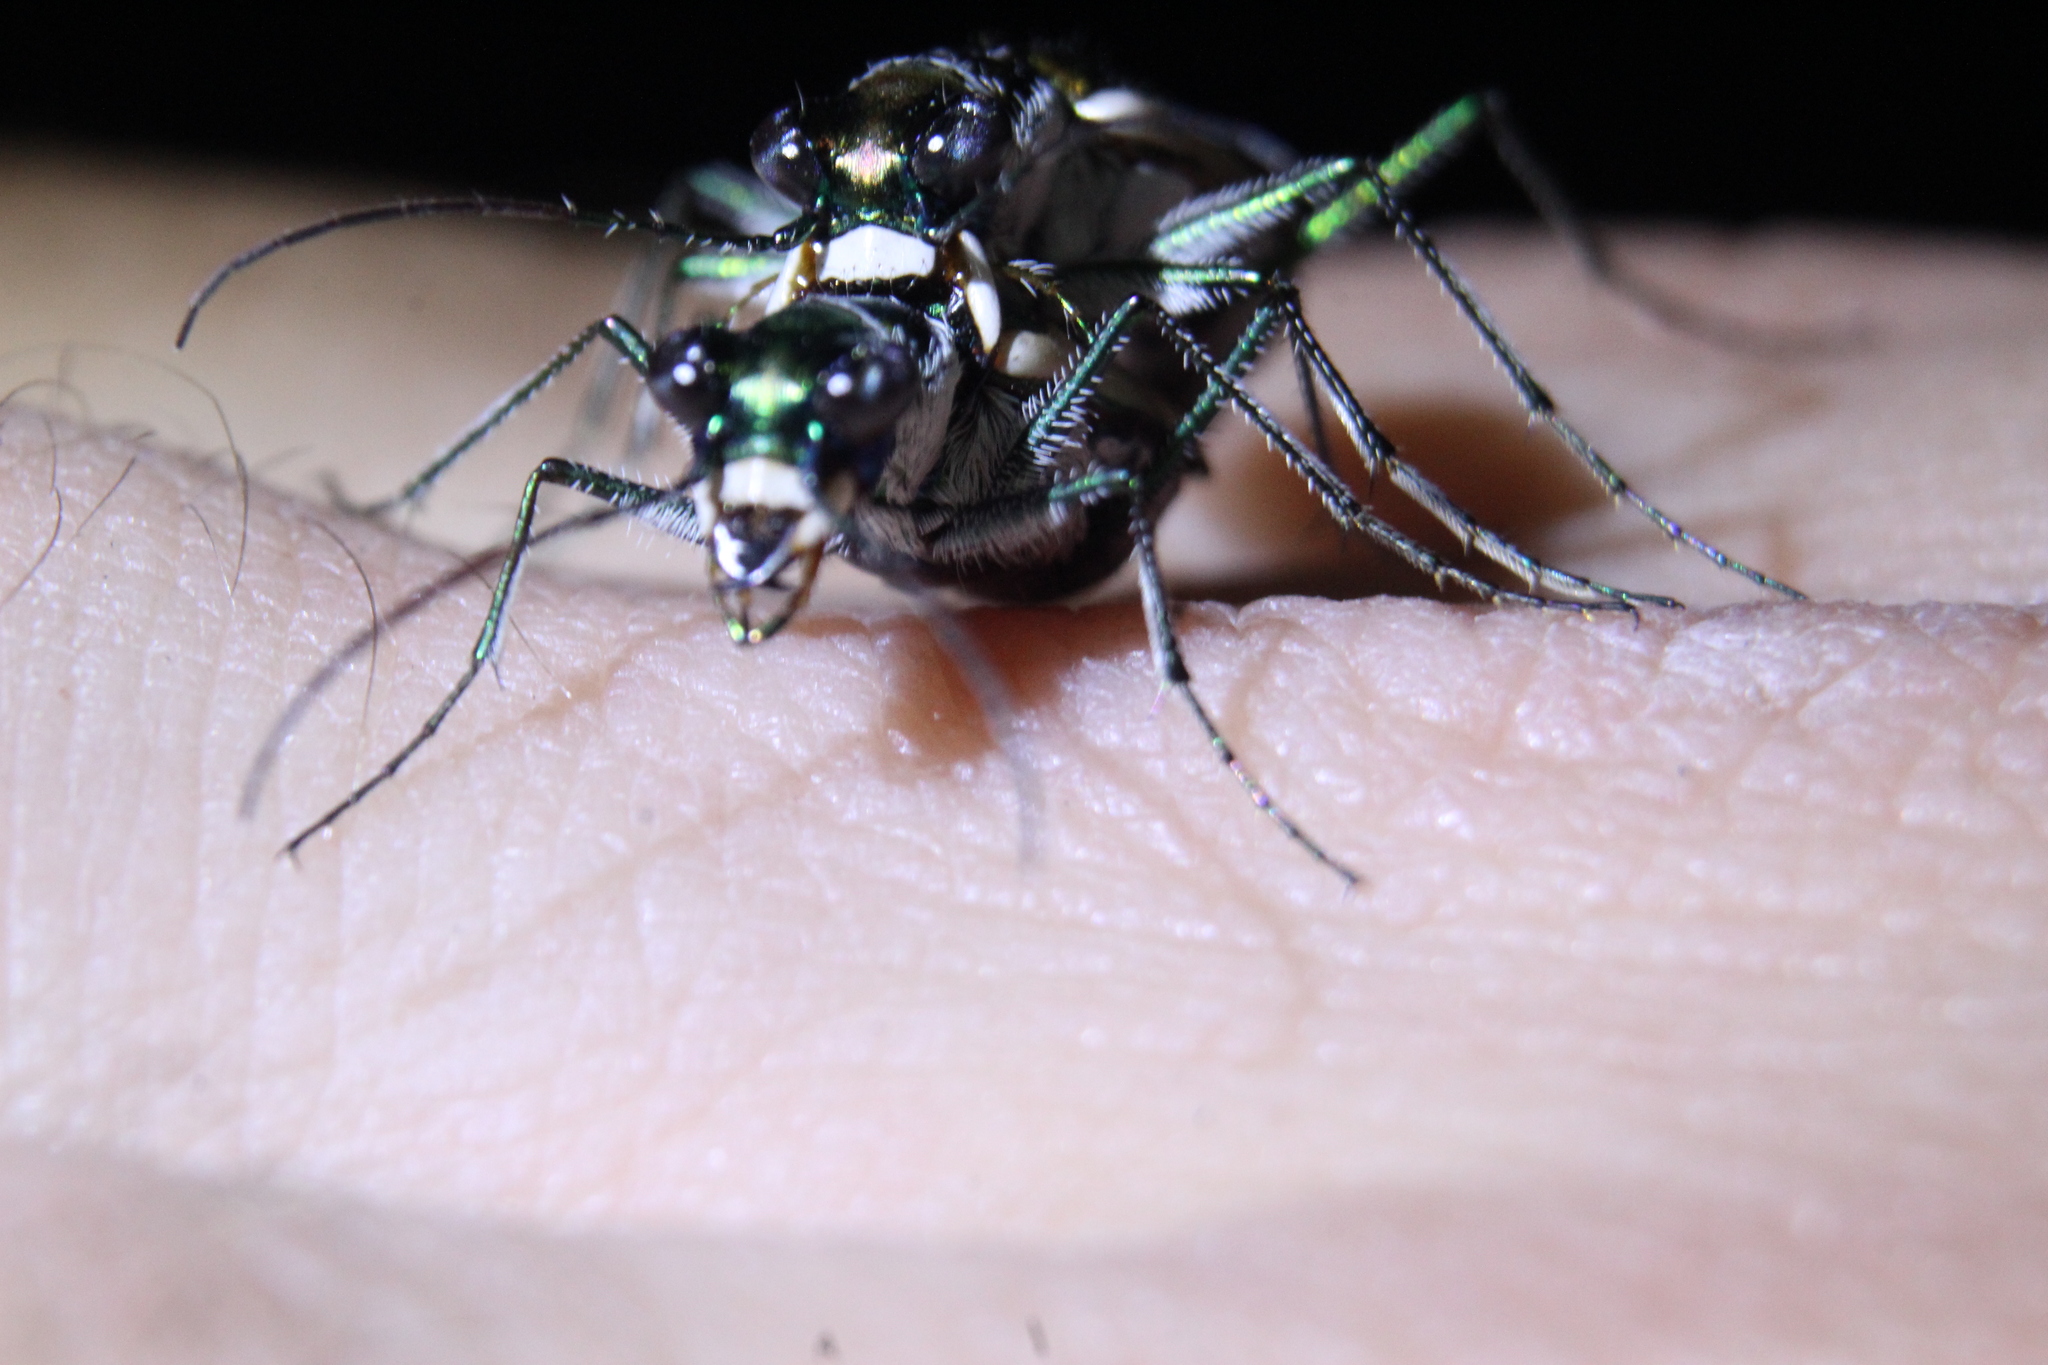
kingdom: Animalia
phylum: Arthropoda
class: Insecta
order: Coleoptera
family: Carabidae
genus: Eunota
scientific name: Eunota circumpicta
